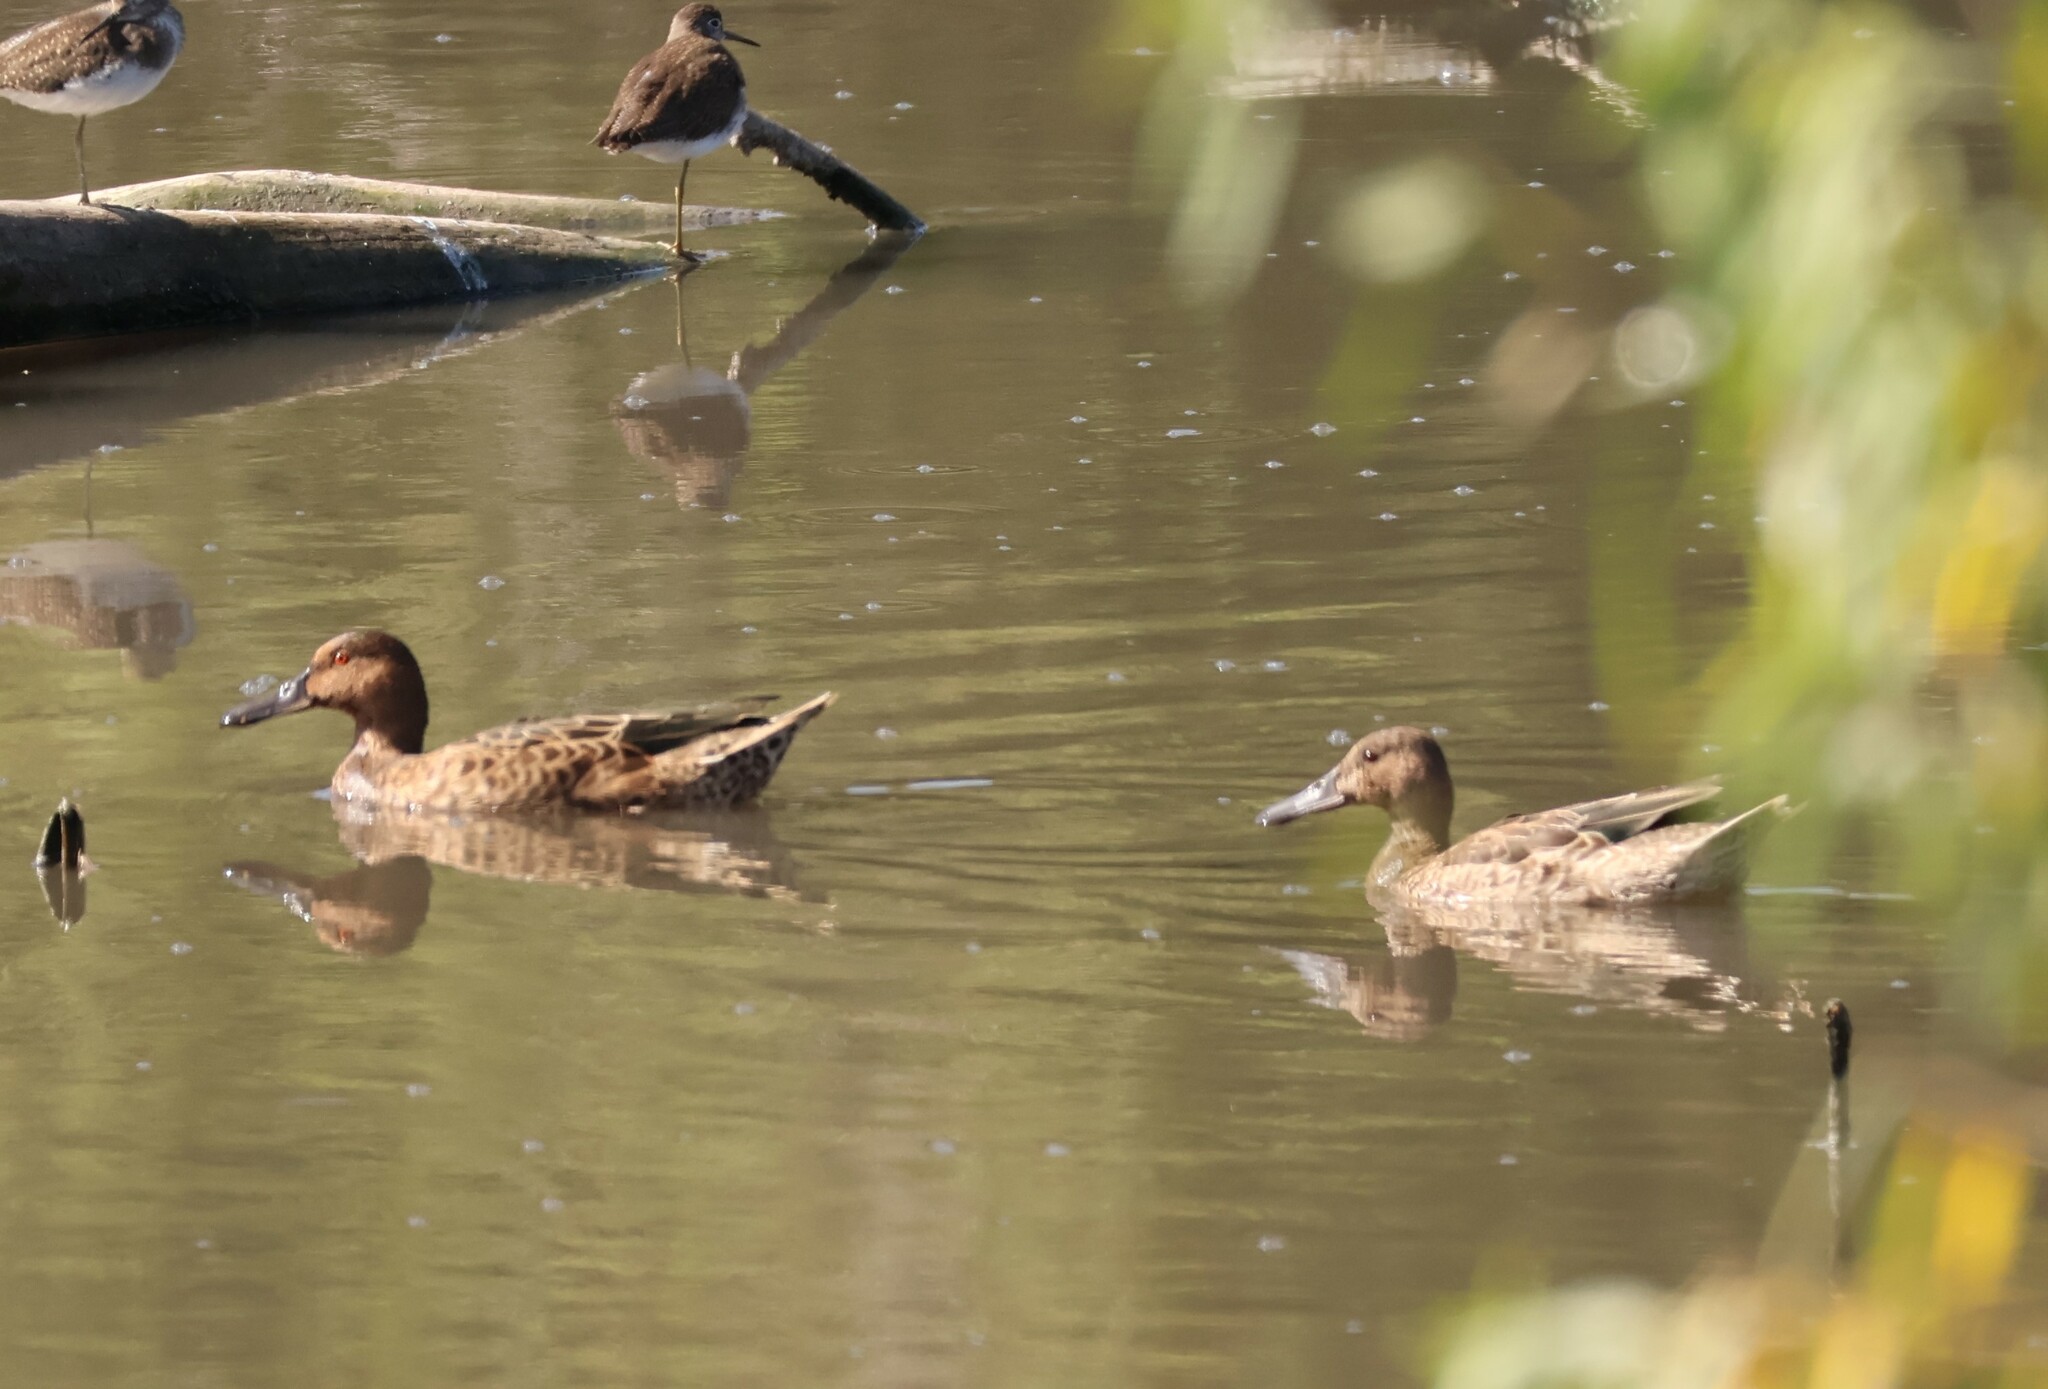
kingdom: Animalia
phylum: Chordata
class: Aves
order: Anseriformes
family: Anatidae
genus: Spatula
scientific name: Spatula cyanoptera
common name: Cinnamon teal
